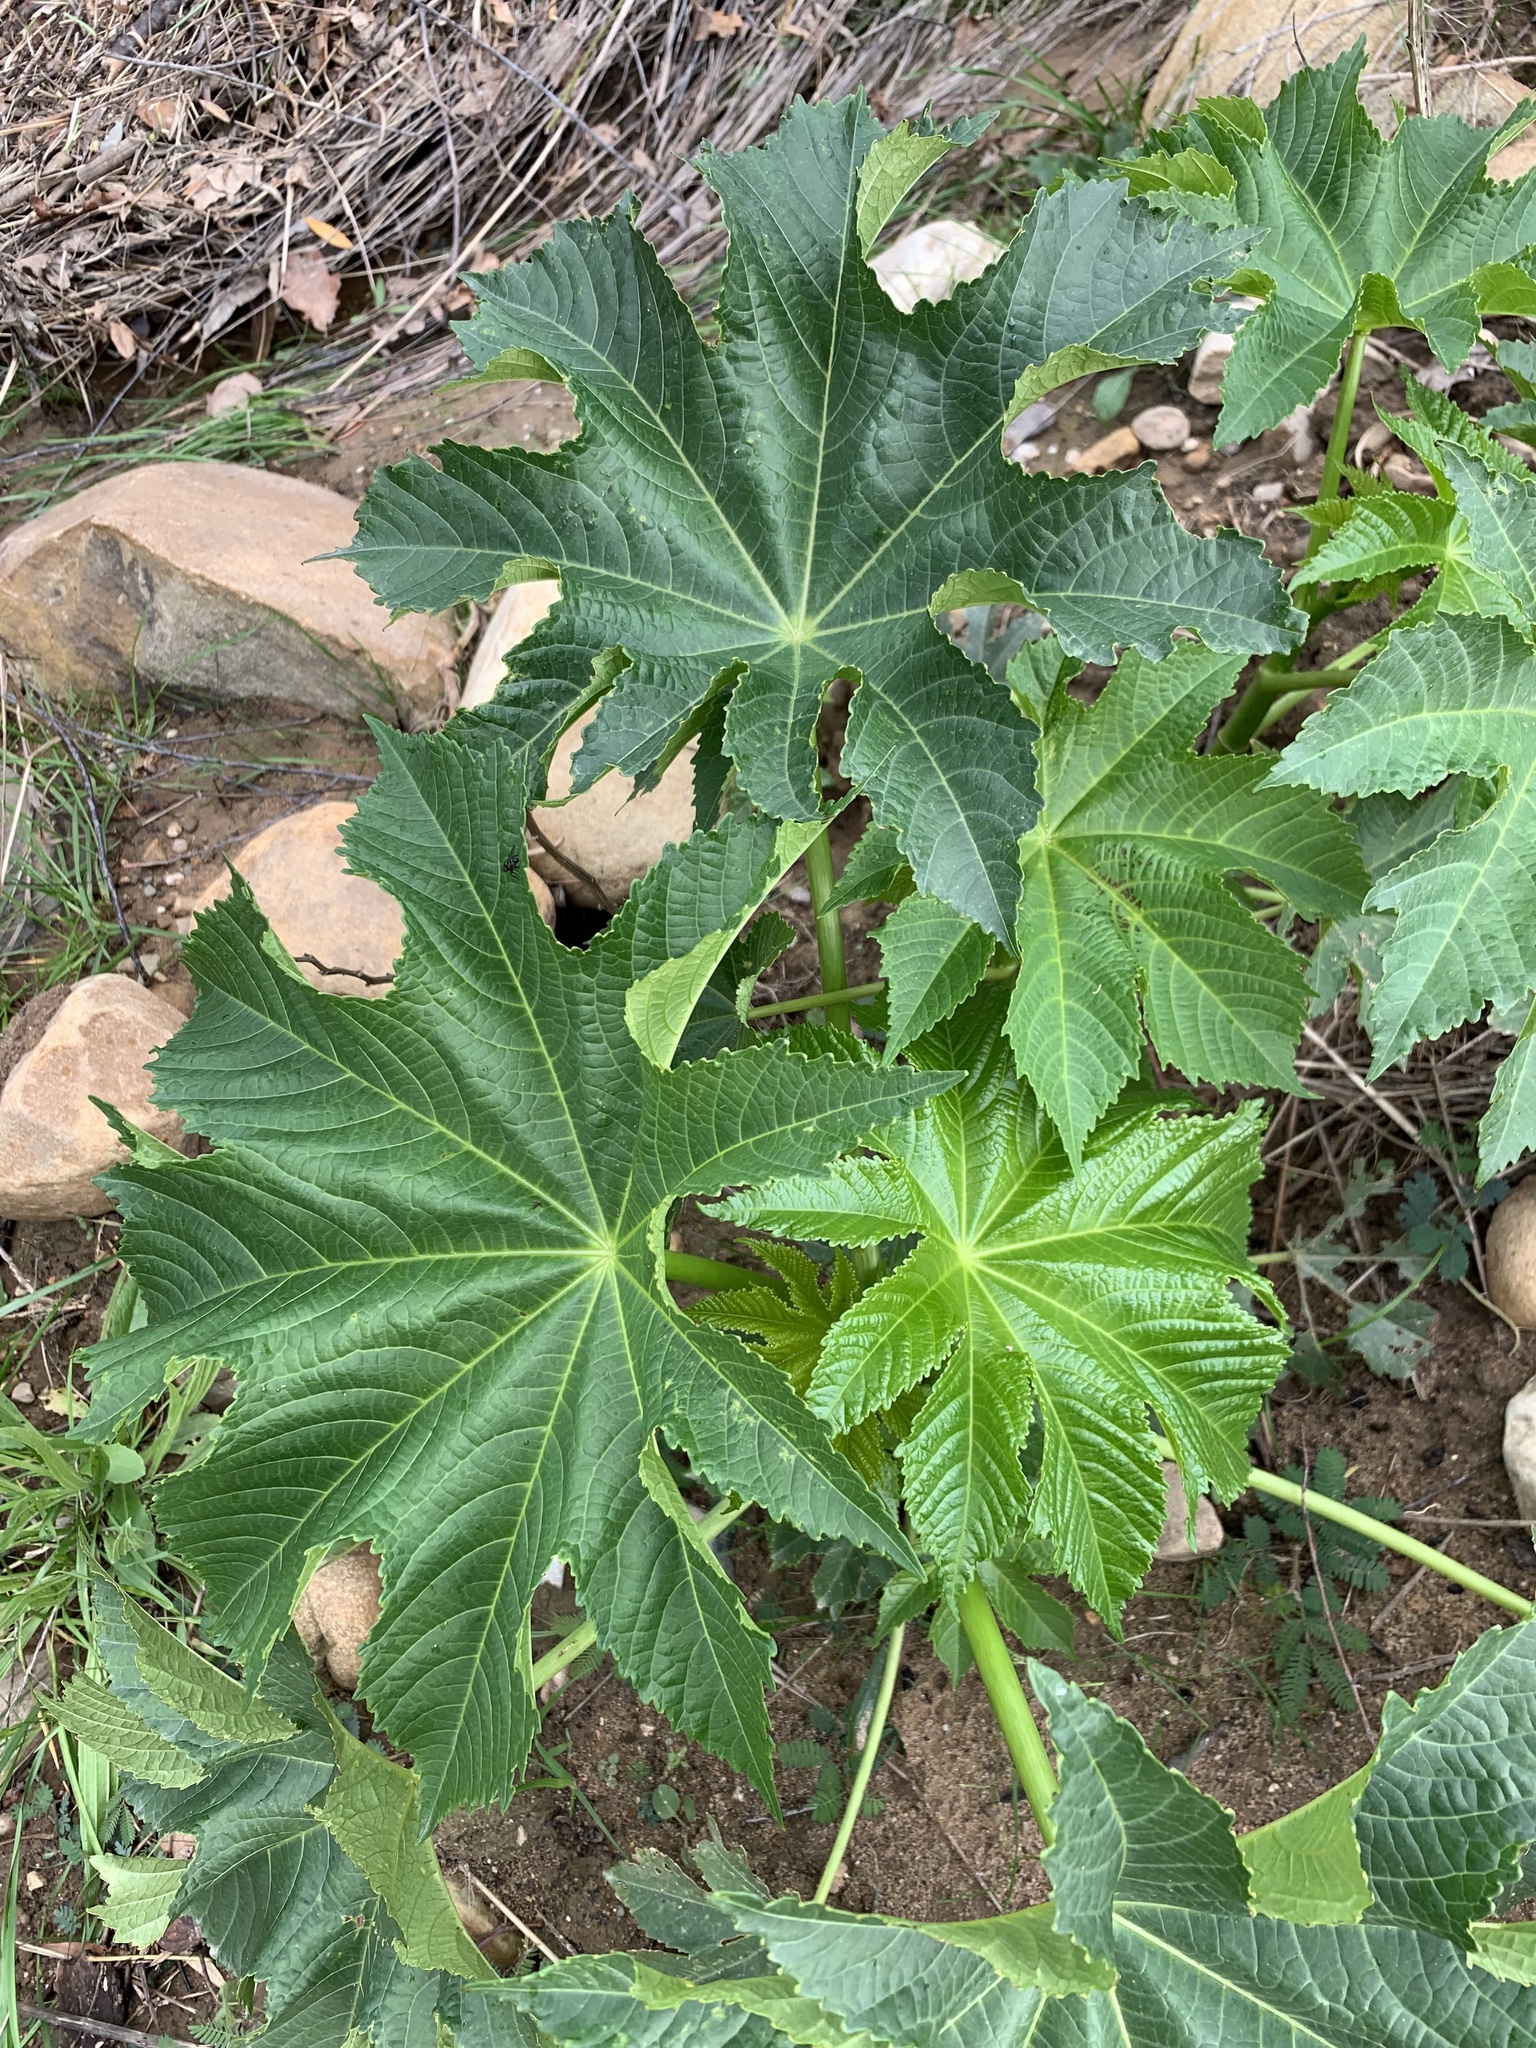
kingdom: Plantae
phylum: Tracheophyta
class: Magnoliopsida
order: Malpighiales
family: Euphorbiaceae
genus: Ricinus
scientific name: Ricinus communis
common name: Castor-oil-plant
